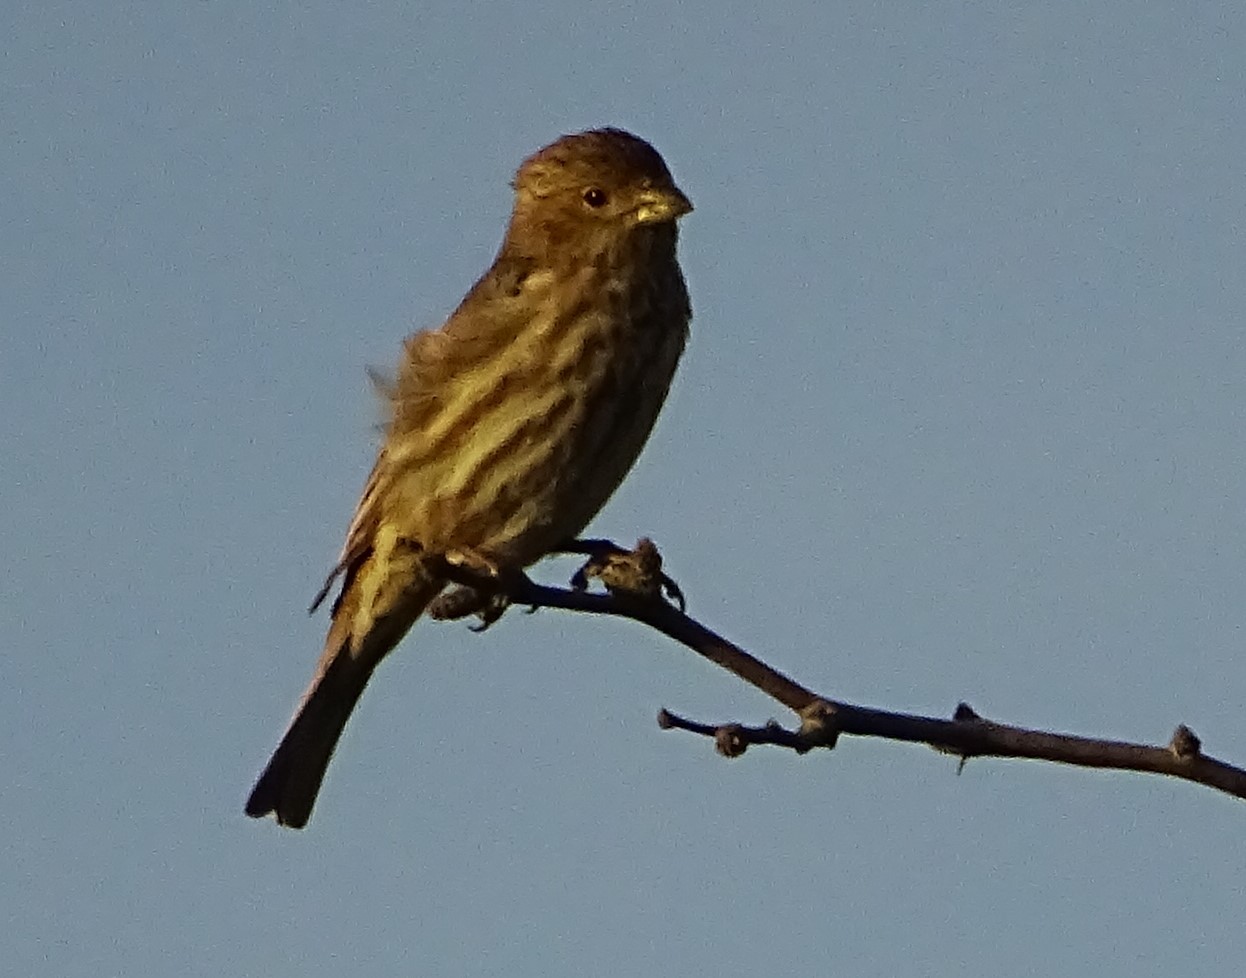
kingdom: Animalia
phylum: Chordata
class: Aves
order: Passeriformes
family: Fringillidae
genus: Haemorhous
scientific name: Haemorhous mexicanus
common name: House finch
